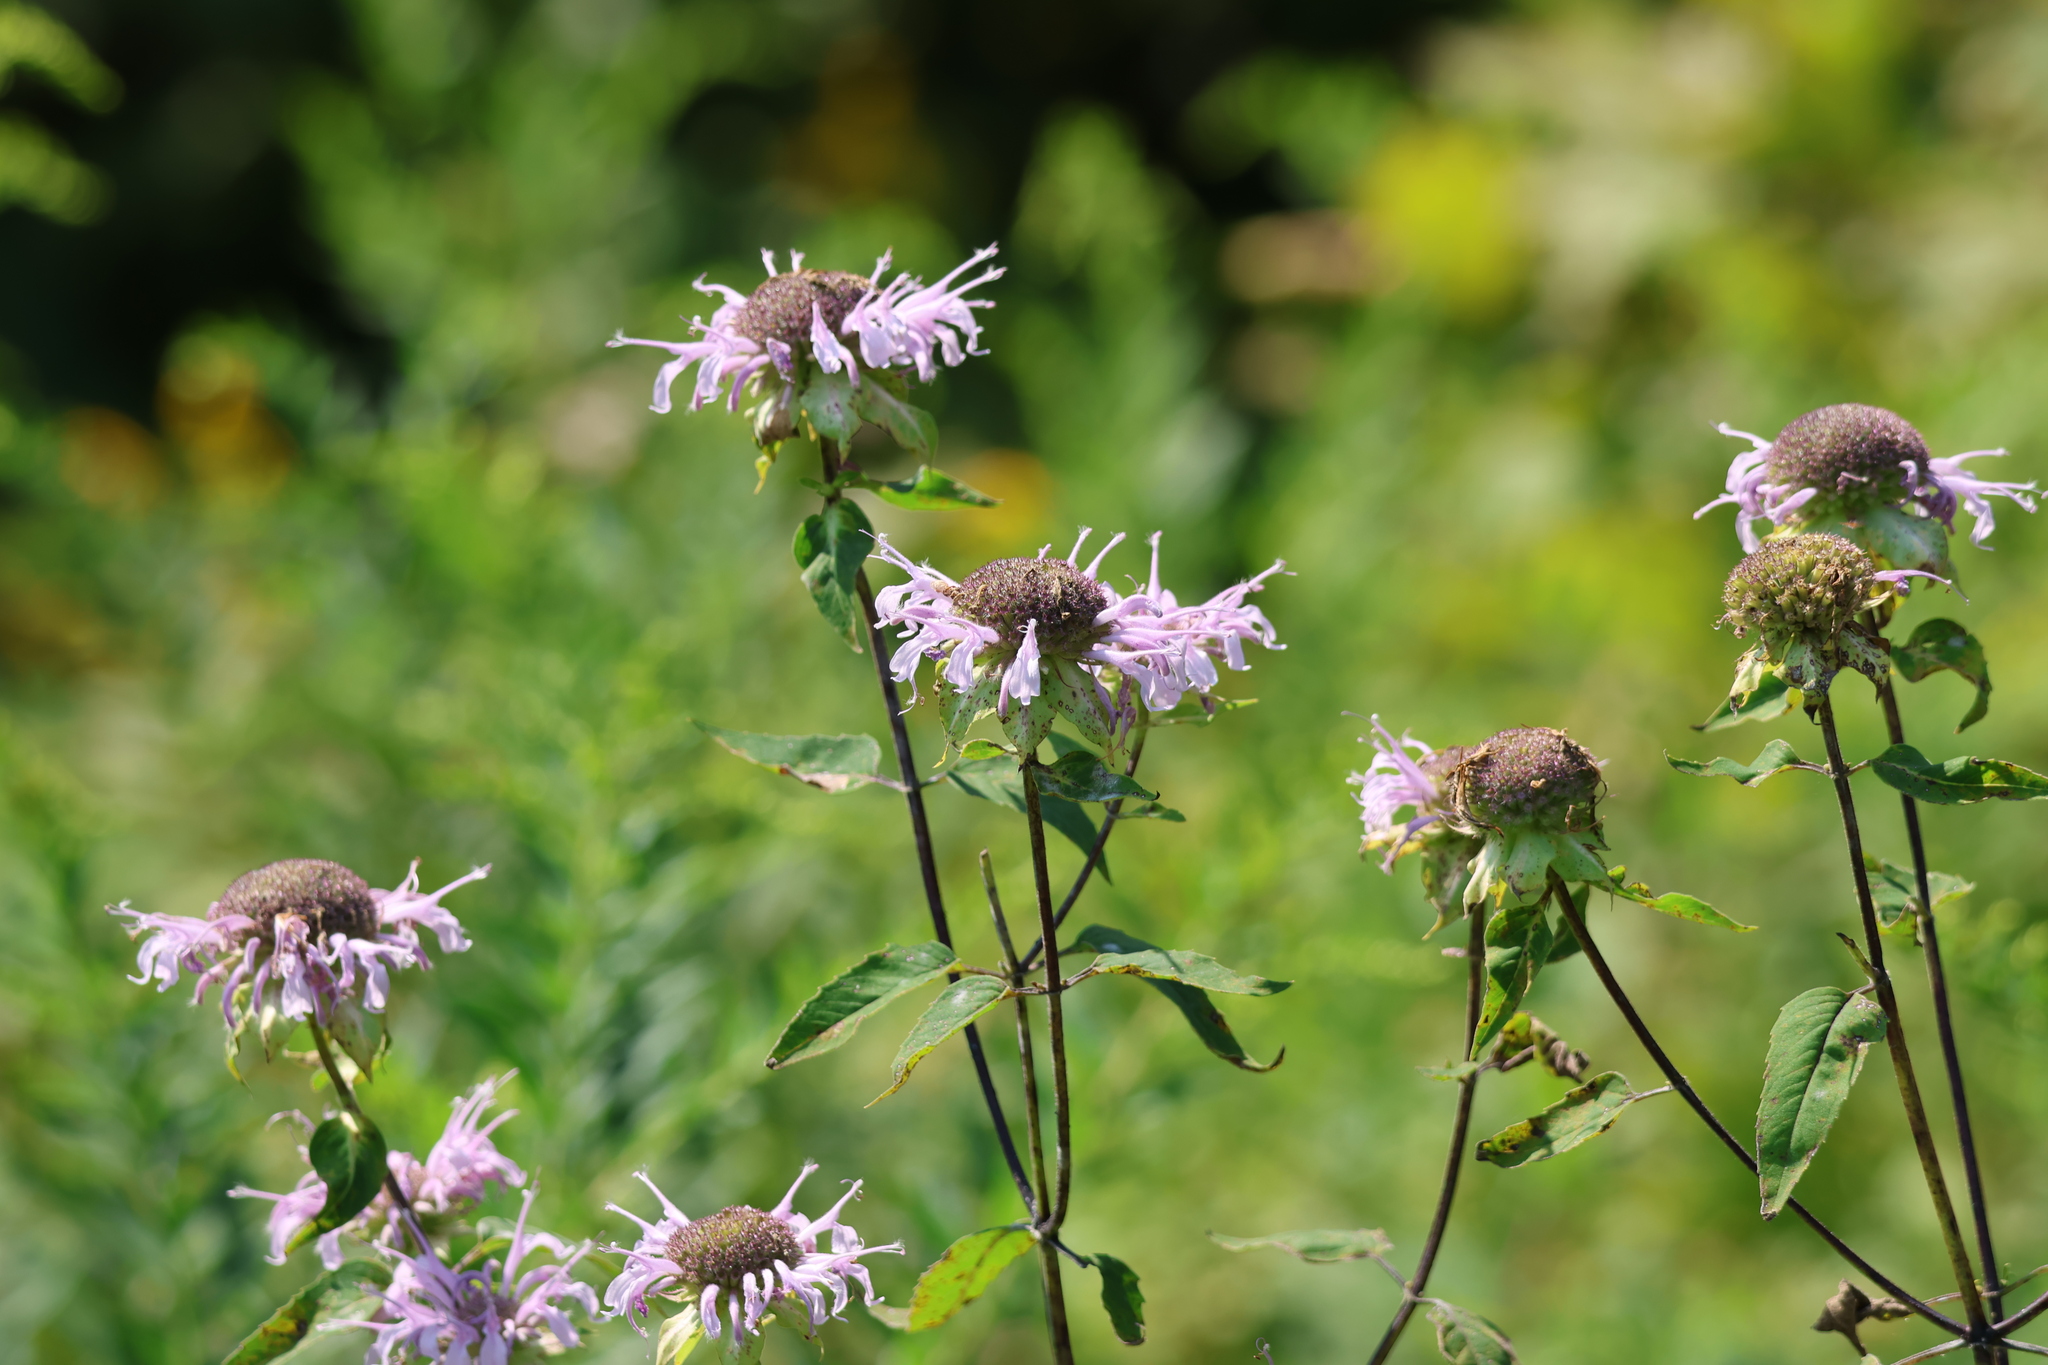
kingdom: Plantae
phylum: Tracheophyta
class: Magnoliopsida
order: Lamiales
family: Lamiaceae
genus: Monarda
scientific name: Monarda fistulosa
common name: Purple beebalm
